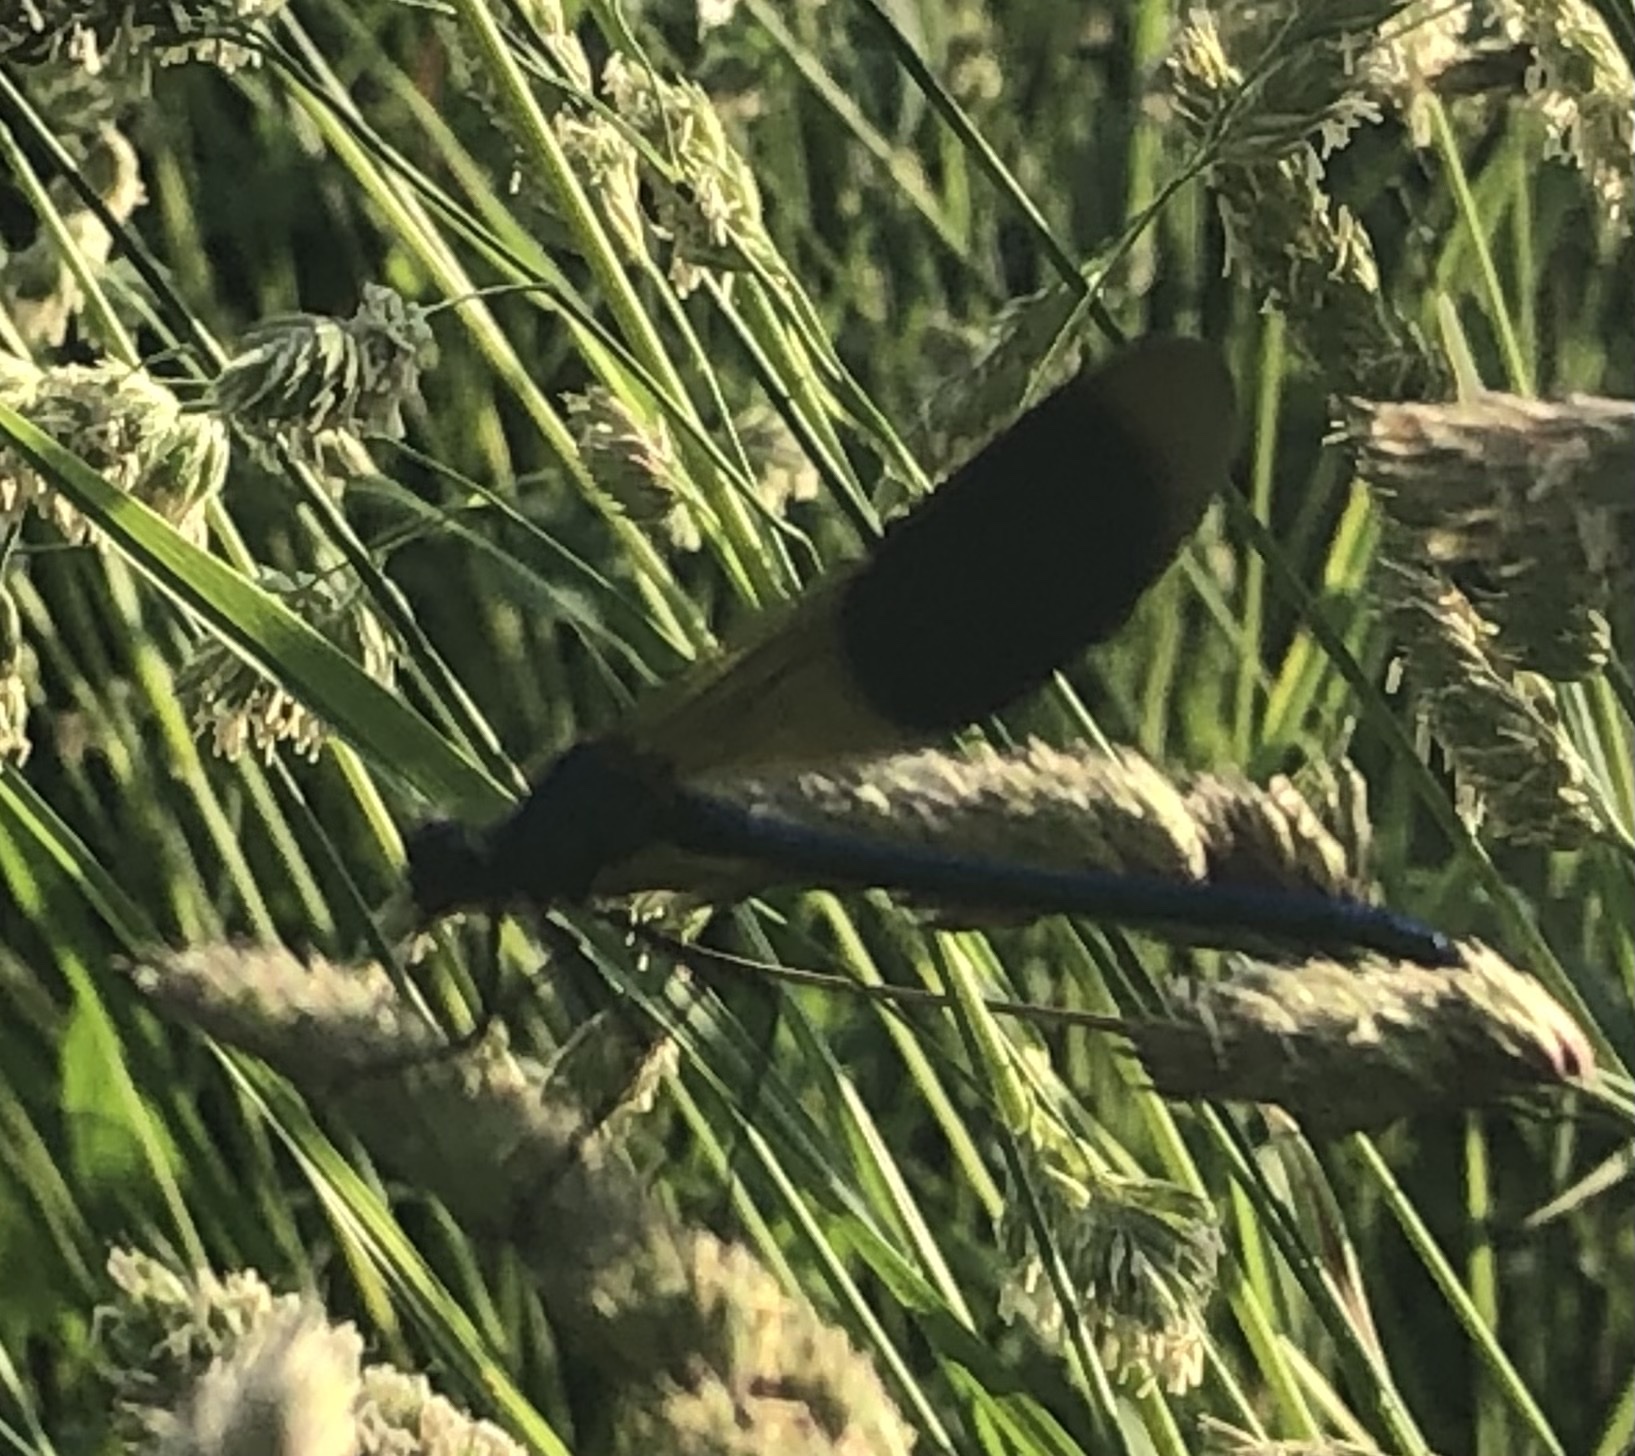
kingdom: Animalia
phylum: Arthropoda
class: Insecta
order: Odonata
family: Calopterygidae
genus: Calopteryx
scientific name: Calopteryx splendens
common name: Banded demoiselle
